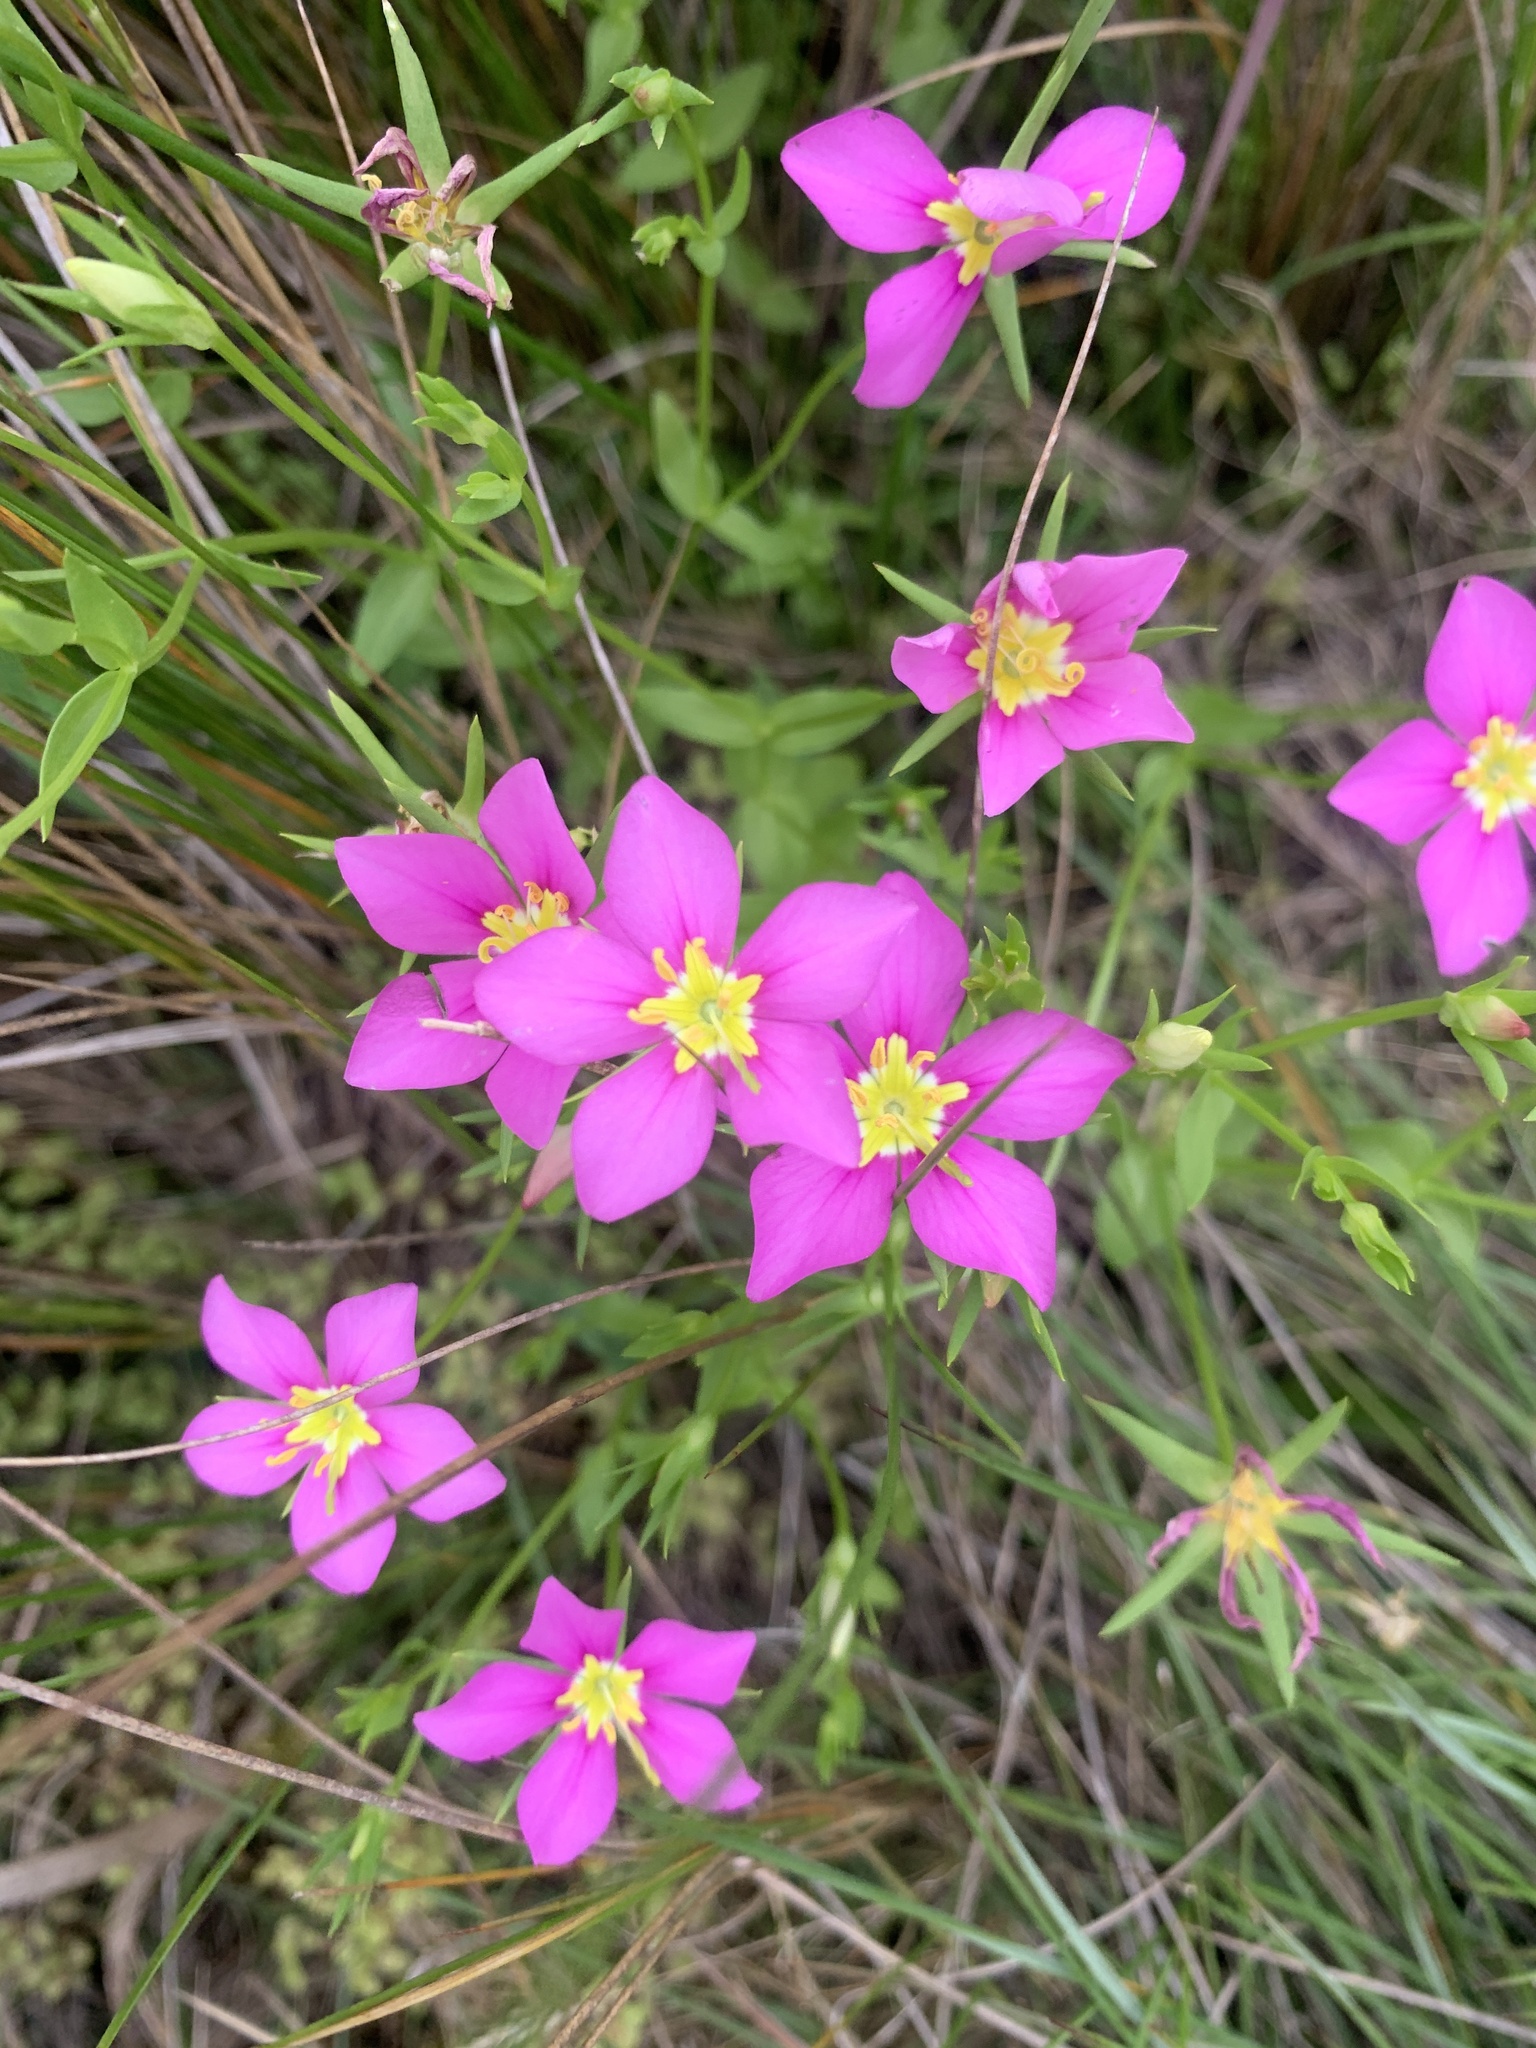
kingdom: Plantae
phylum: Tracheophyta
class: Magnoliopsida
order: Gentianales
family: Gentianaceae
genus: Sabatia
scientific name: Sabatia campestris
